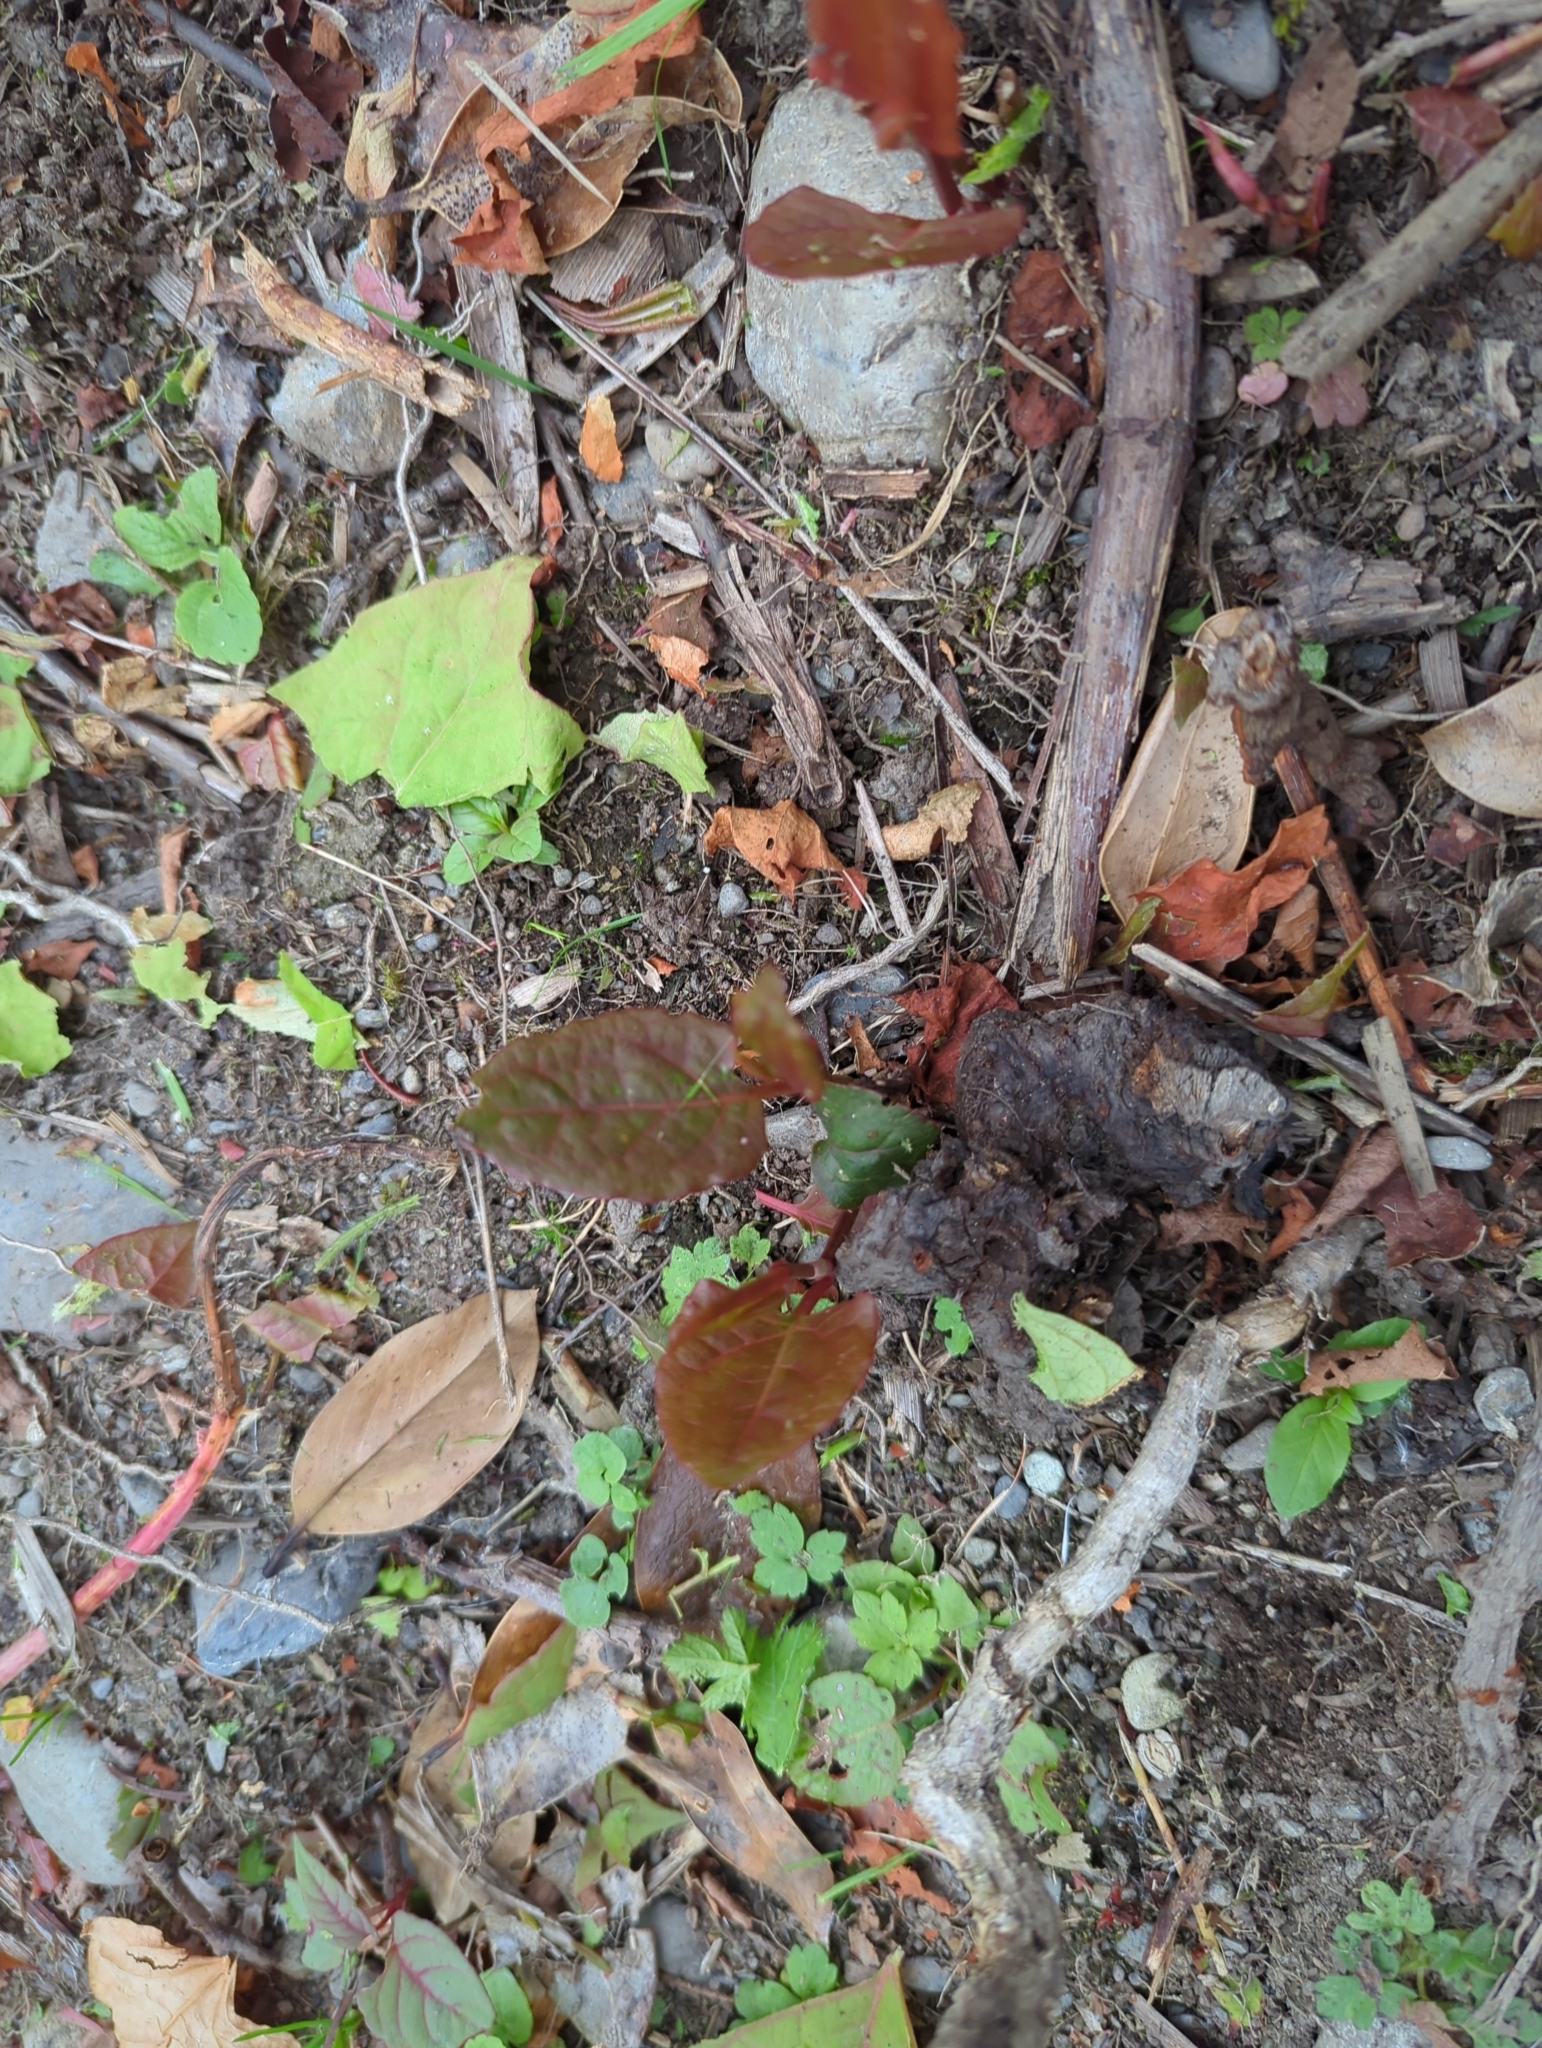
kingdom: Plantae
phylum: Tracheophyta
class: Magnoliopsida
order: Caryophyllales
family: Polygonaceae
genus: Reynoutria
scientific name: Reynoutria japonica
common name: Japanese knotweed
